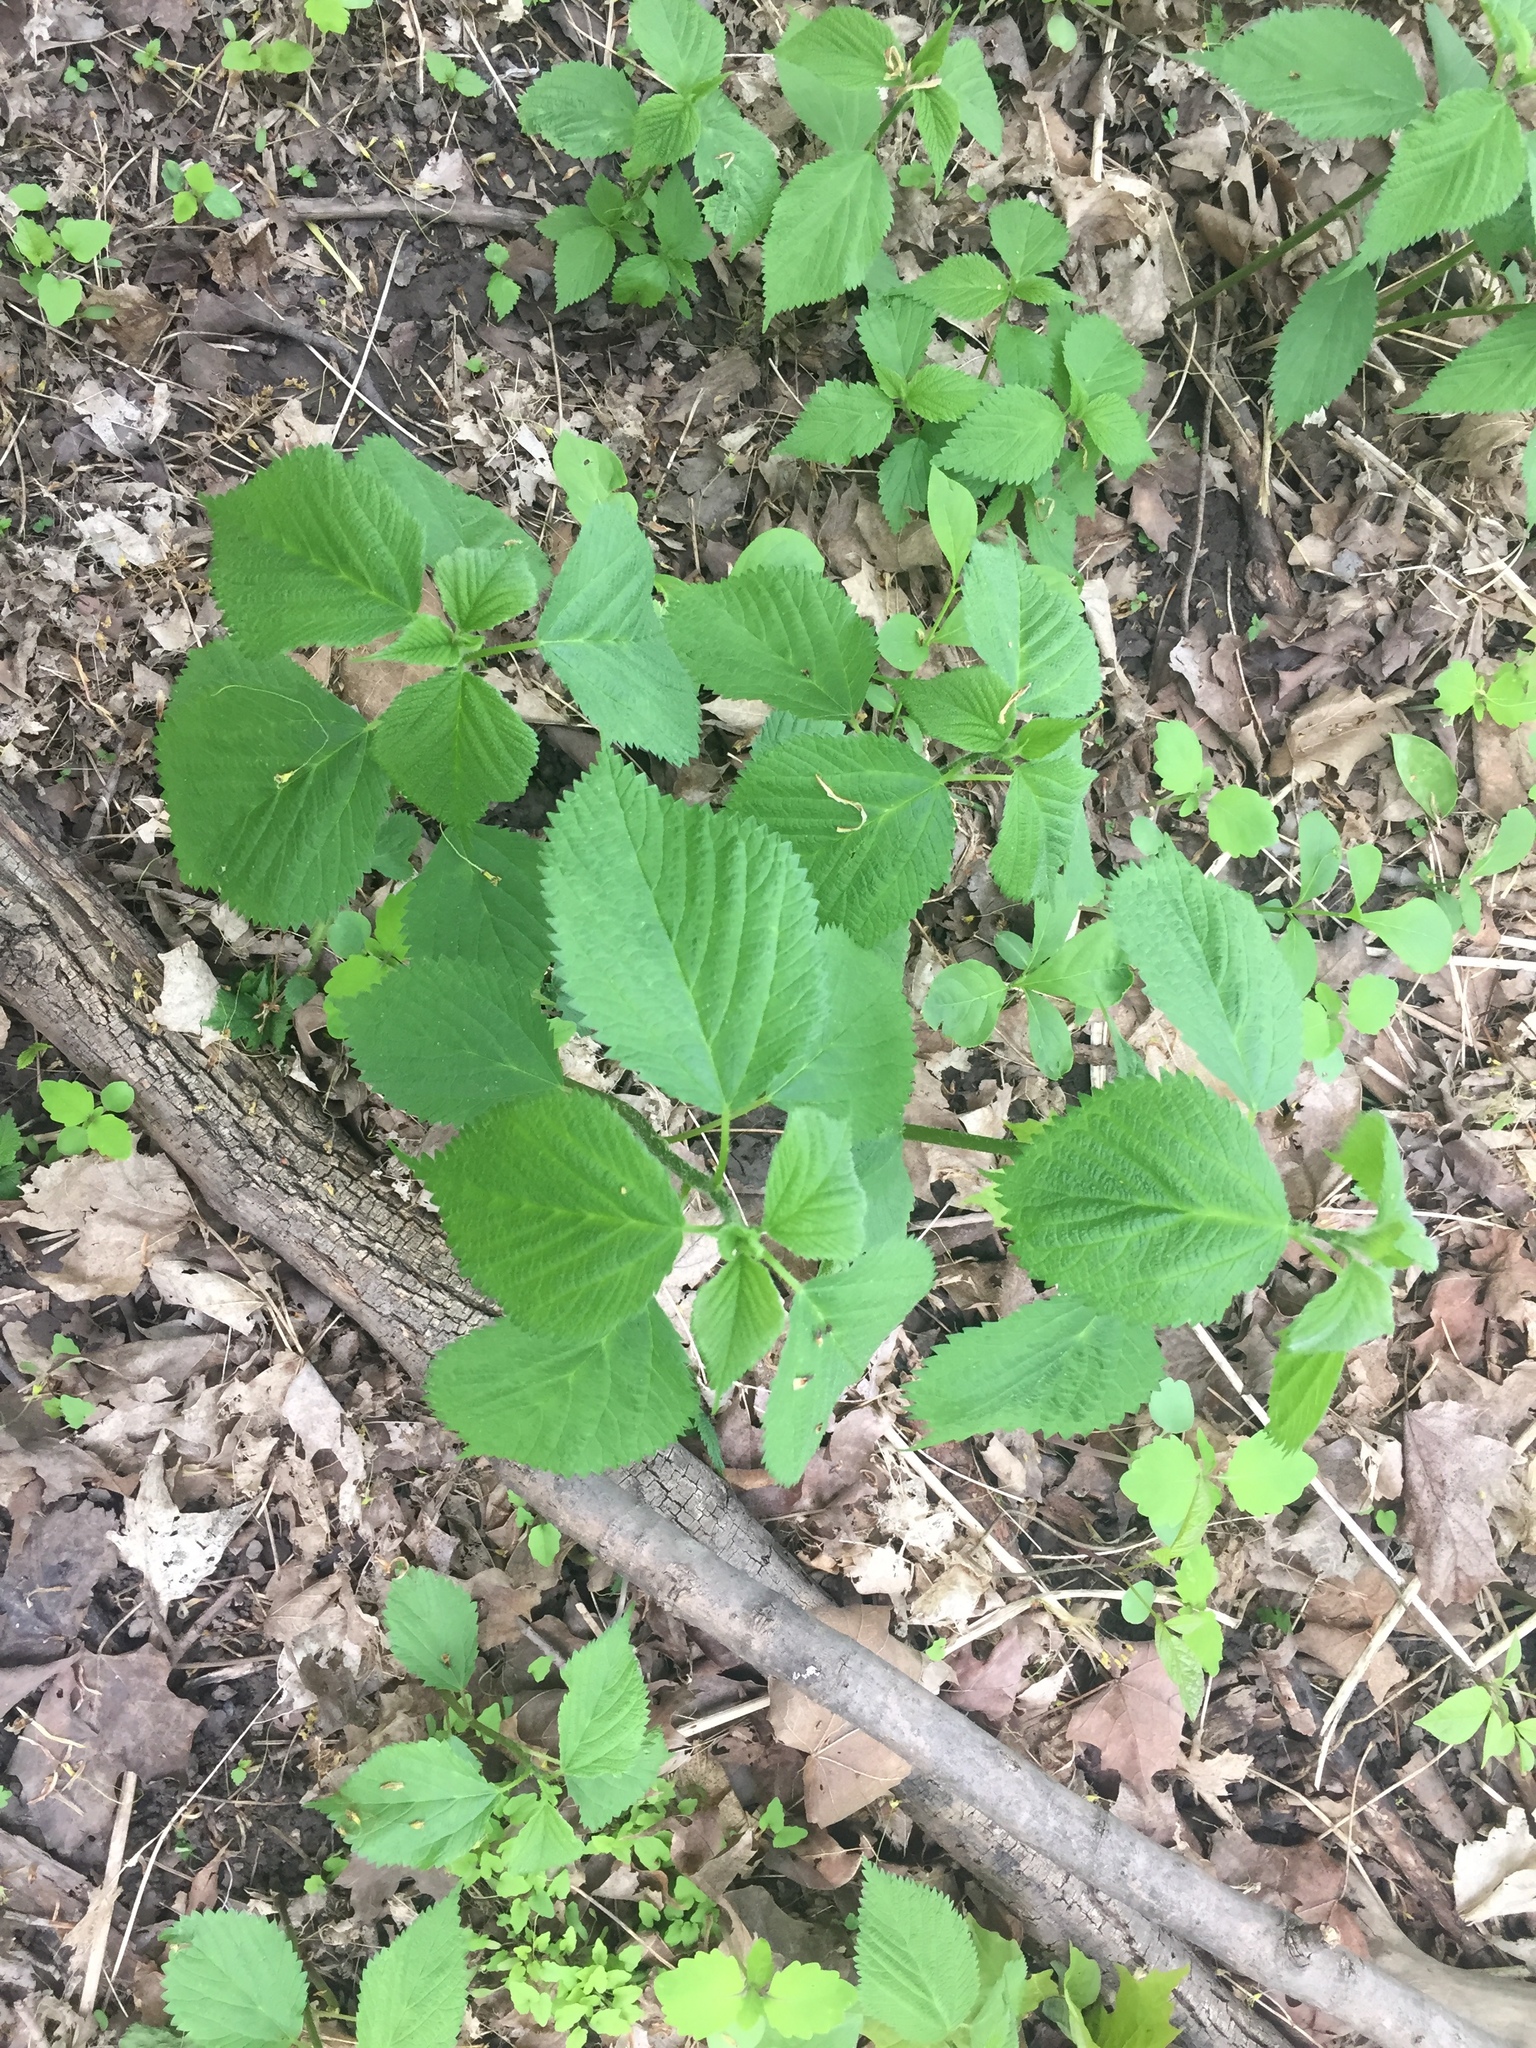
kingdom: Plantae
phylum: Tracheophyta
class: Magnoliopsida
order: Rosales
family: Urticaceae
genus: Laportea
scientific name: Laportea canadensis
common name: Canada nettle
